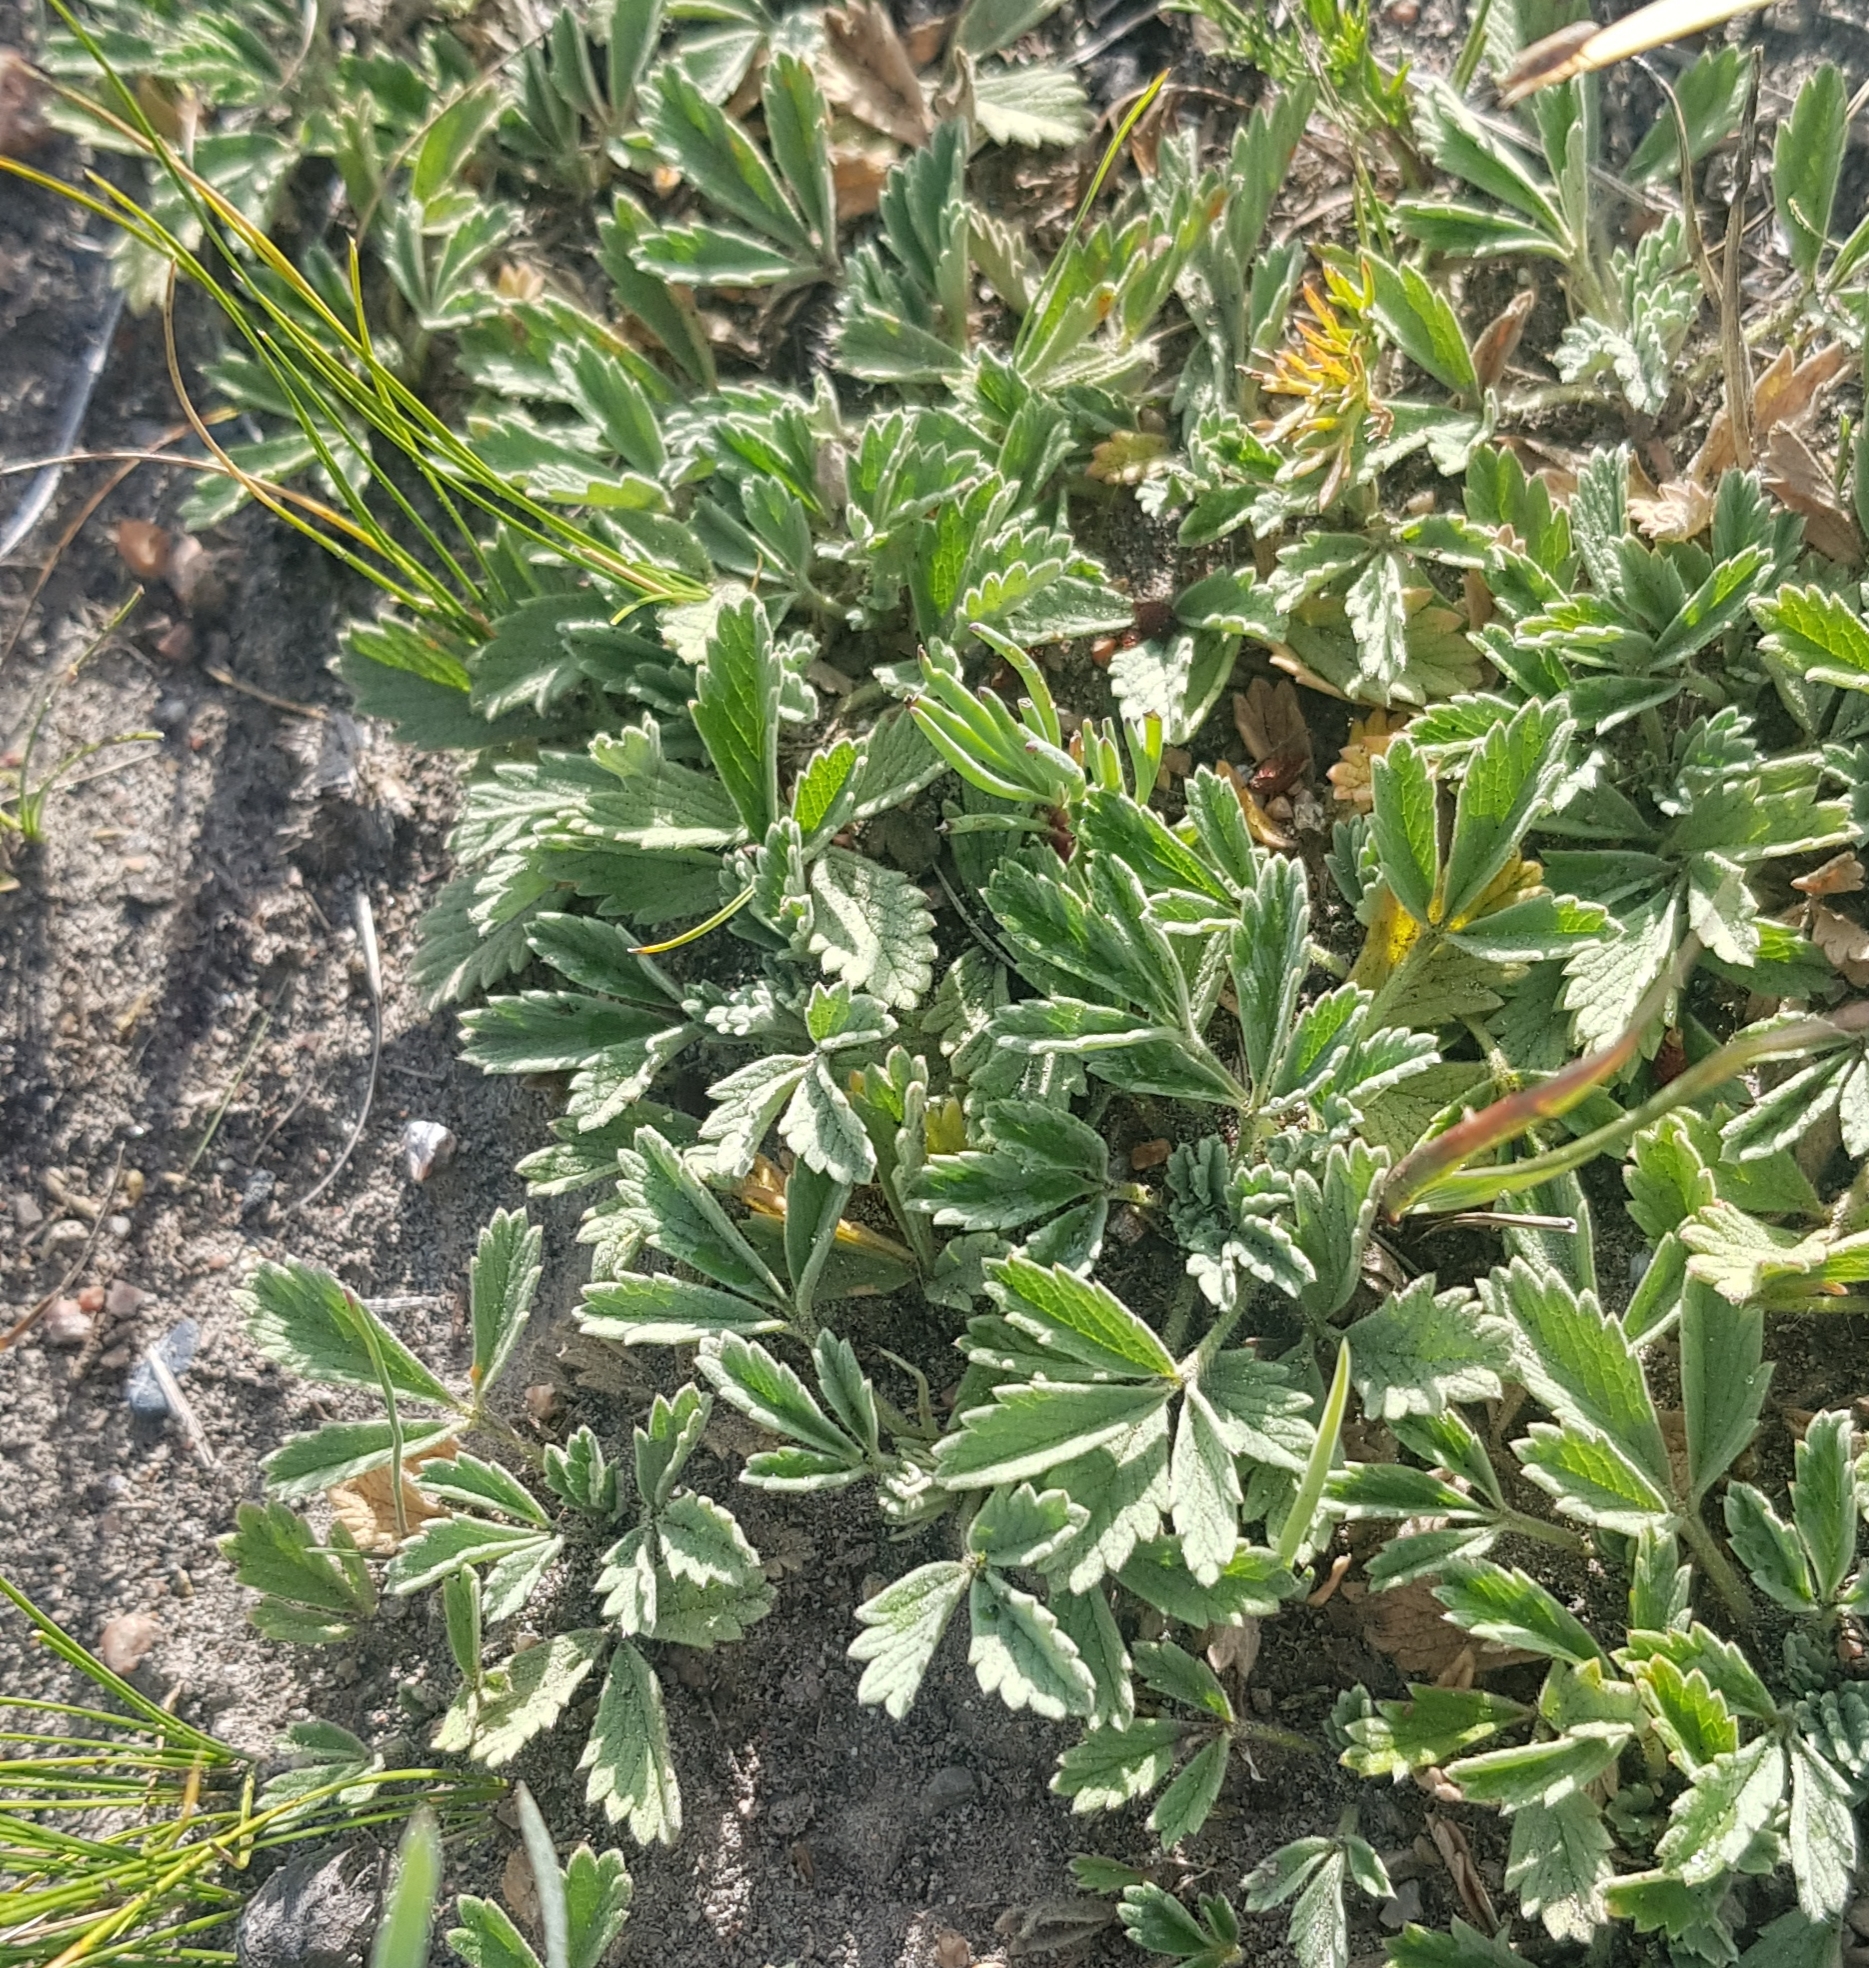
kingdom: Plantae
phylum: Tracheophyta
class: Magnoliopsida
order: Rosales
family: Rosaceae
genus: Potentilla
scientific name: Potentilla acaulis
